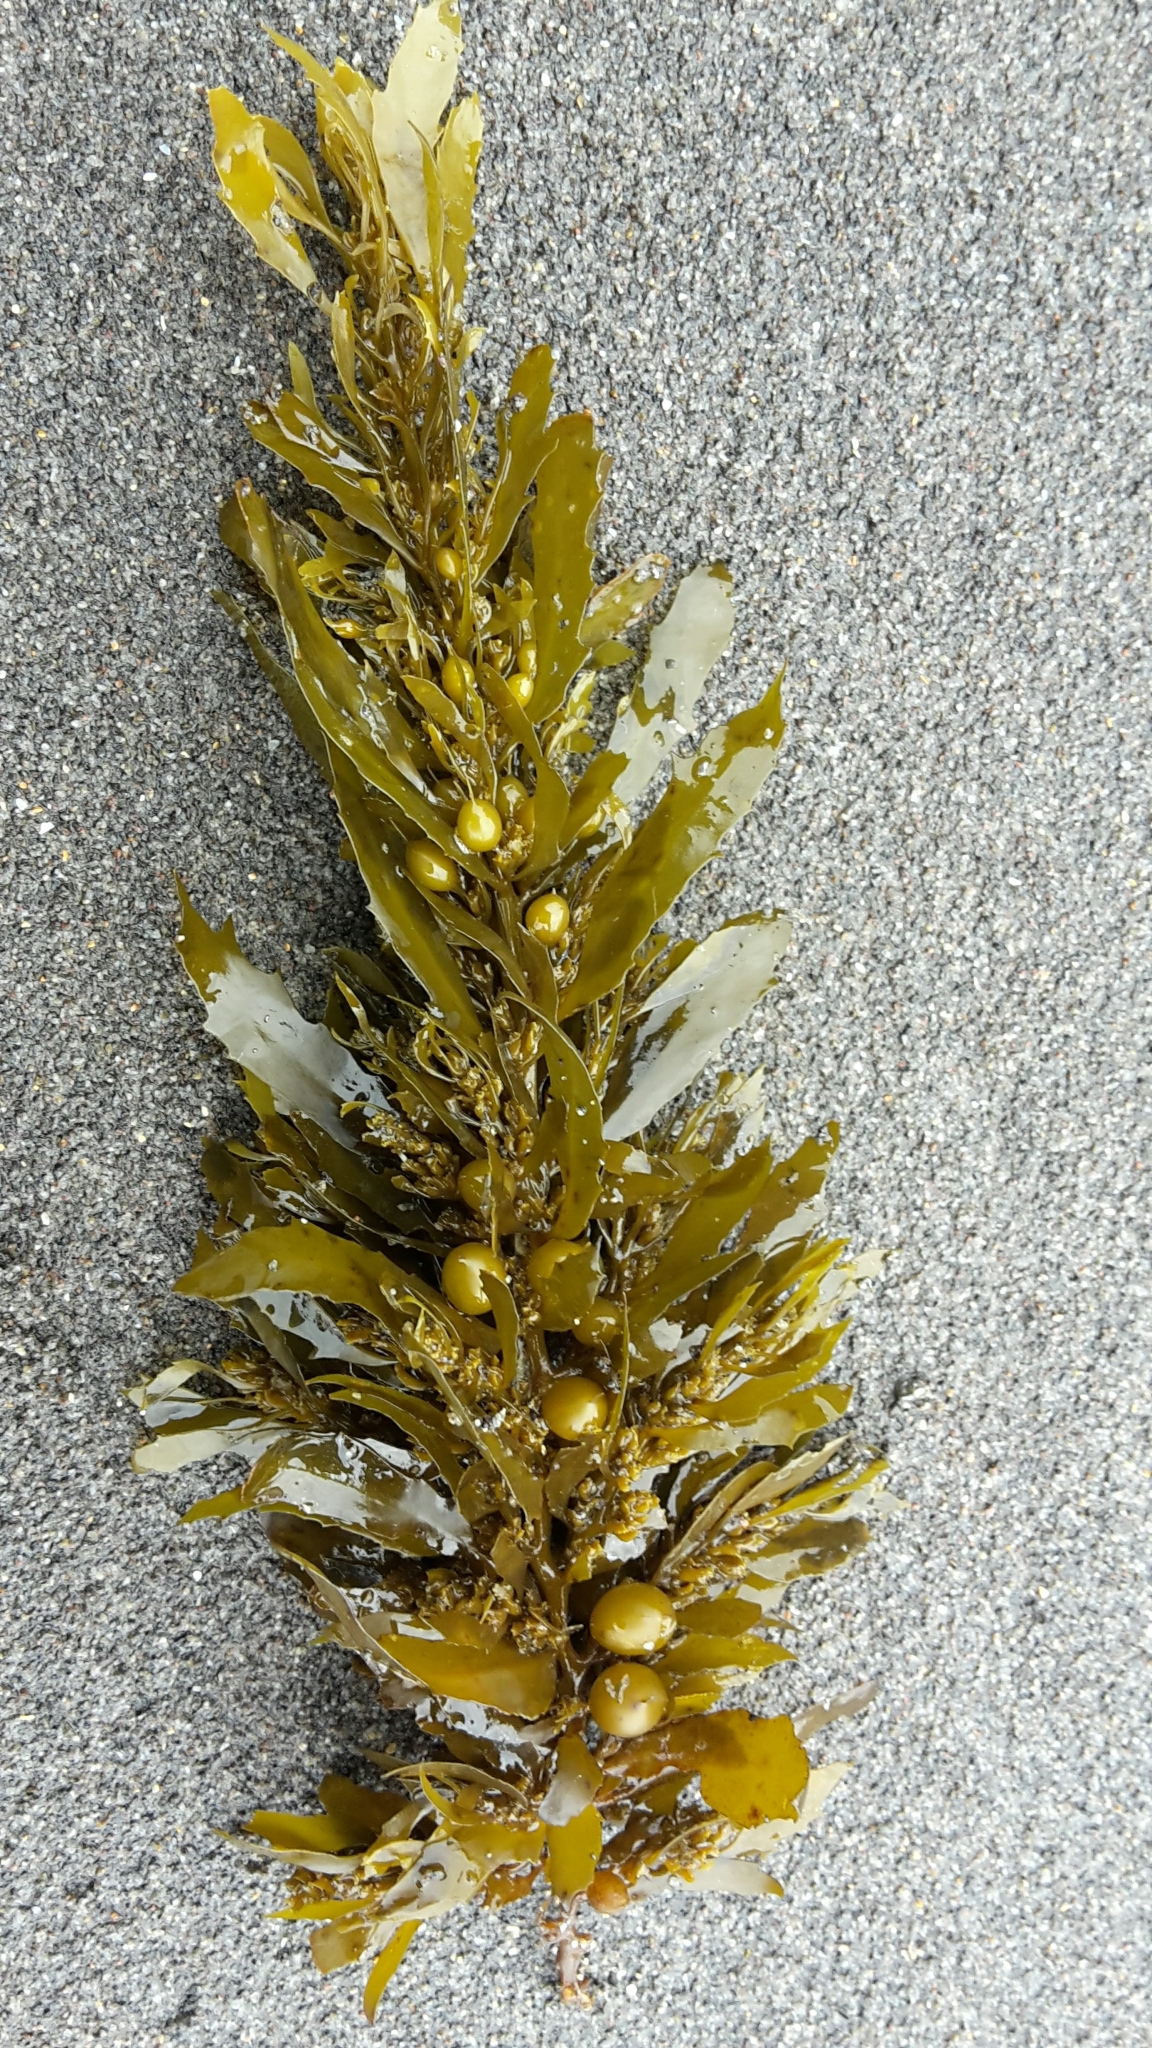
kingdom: Chromista
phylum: Ochrophyta
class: Phaeophyceae
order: Fucales
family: Sargassaceae
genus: Sargassum
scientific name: Sargassum sinclairii
